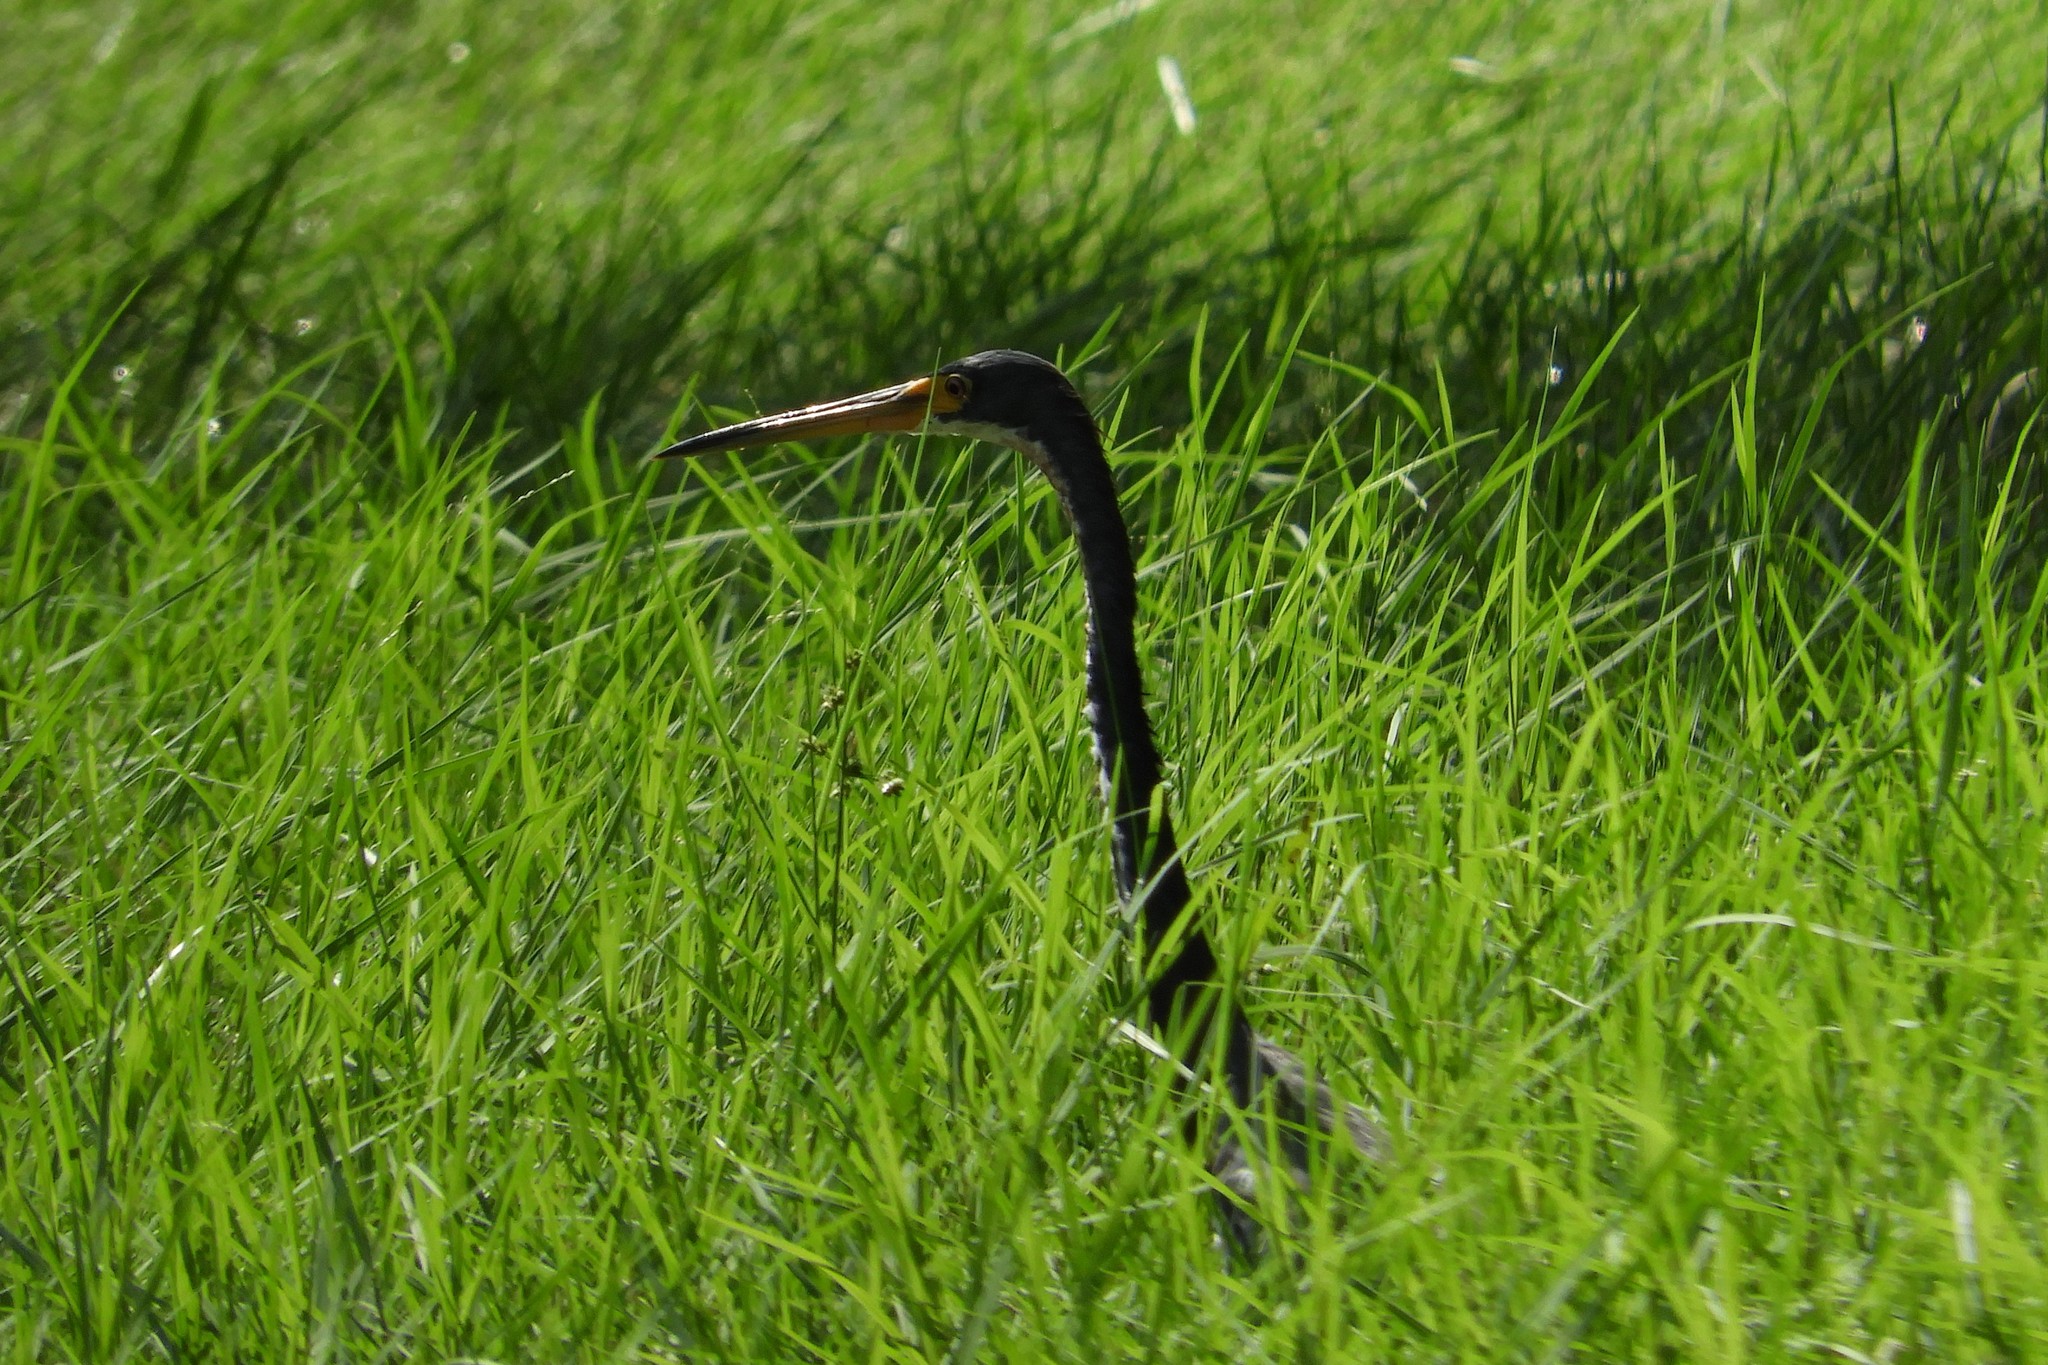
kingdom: Animalia
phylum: Chordata
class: Aves
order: Pelecaniformes
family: Ardeidae
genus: Egretta
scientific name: Egretta tricolor
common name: Tricolored heron
